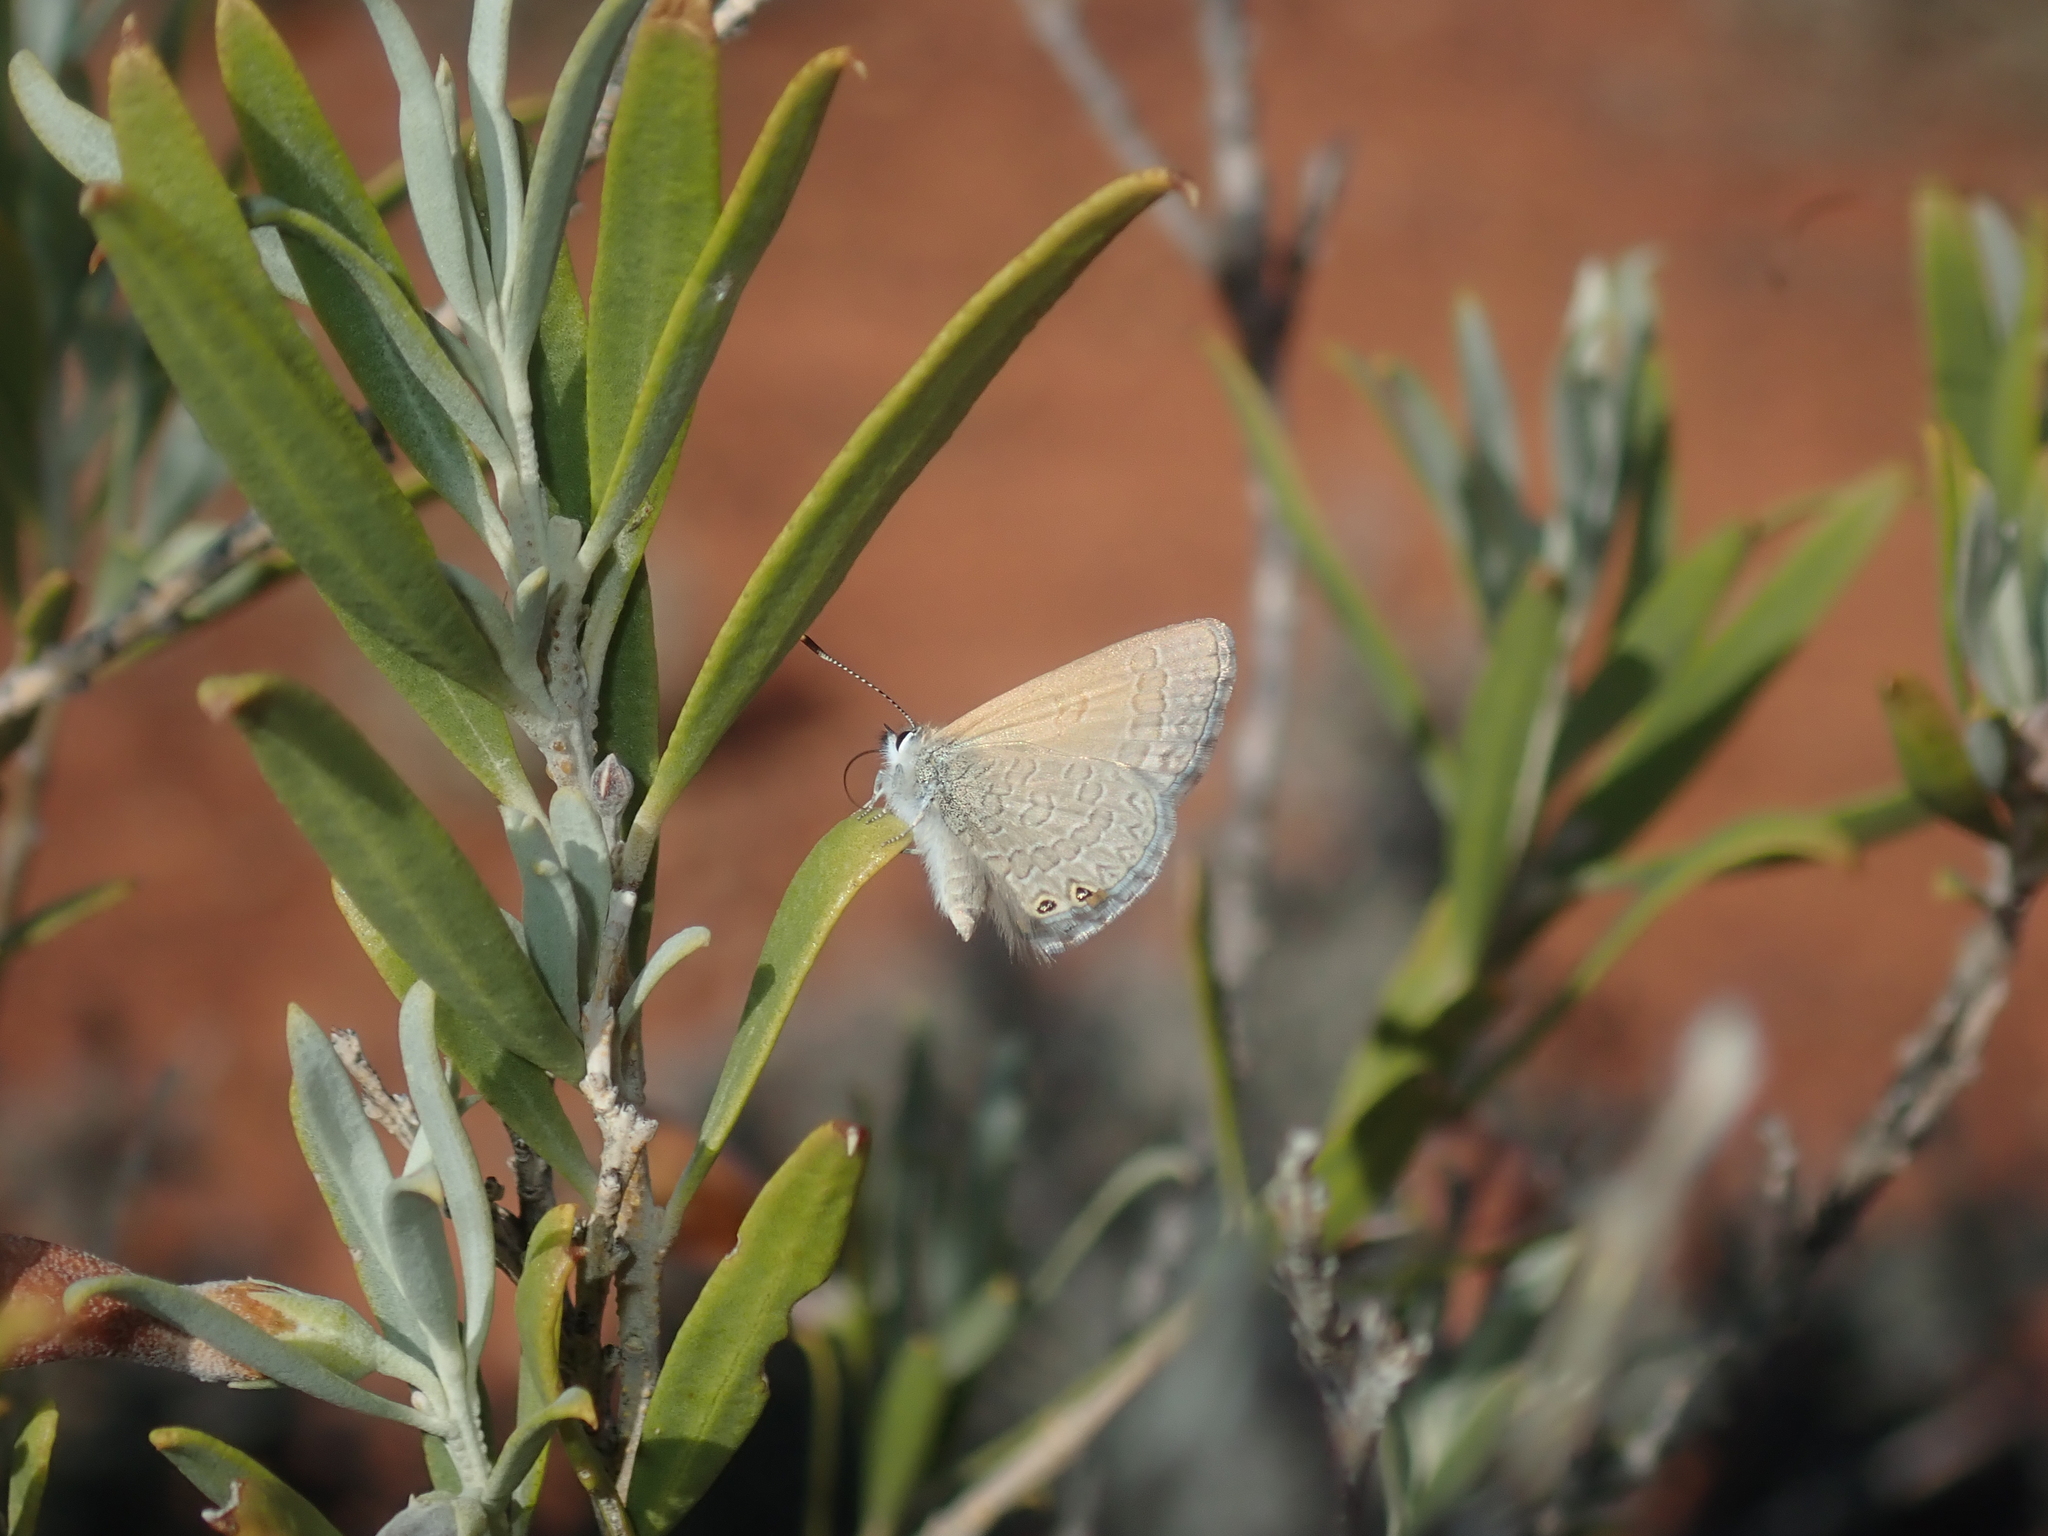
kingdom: Animalia
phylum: Arthropoda
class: Insecta
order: Lepidoptera
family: Lycaenidae
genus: Nacaduba
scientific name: Nacaduba biocellata
